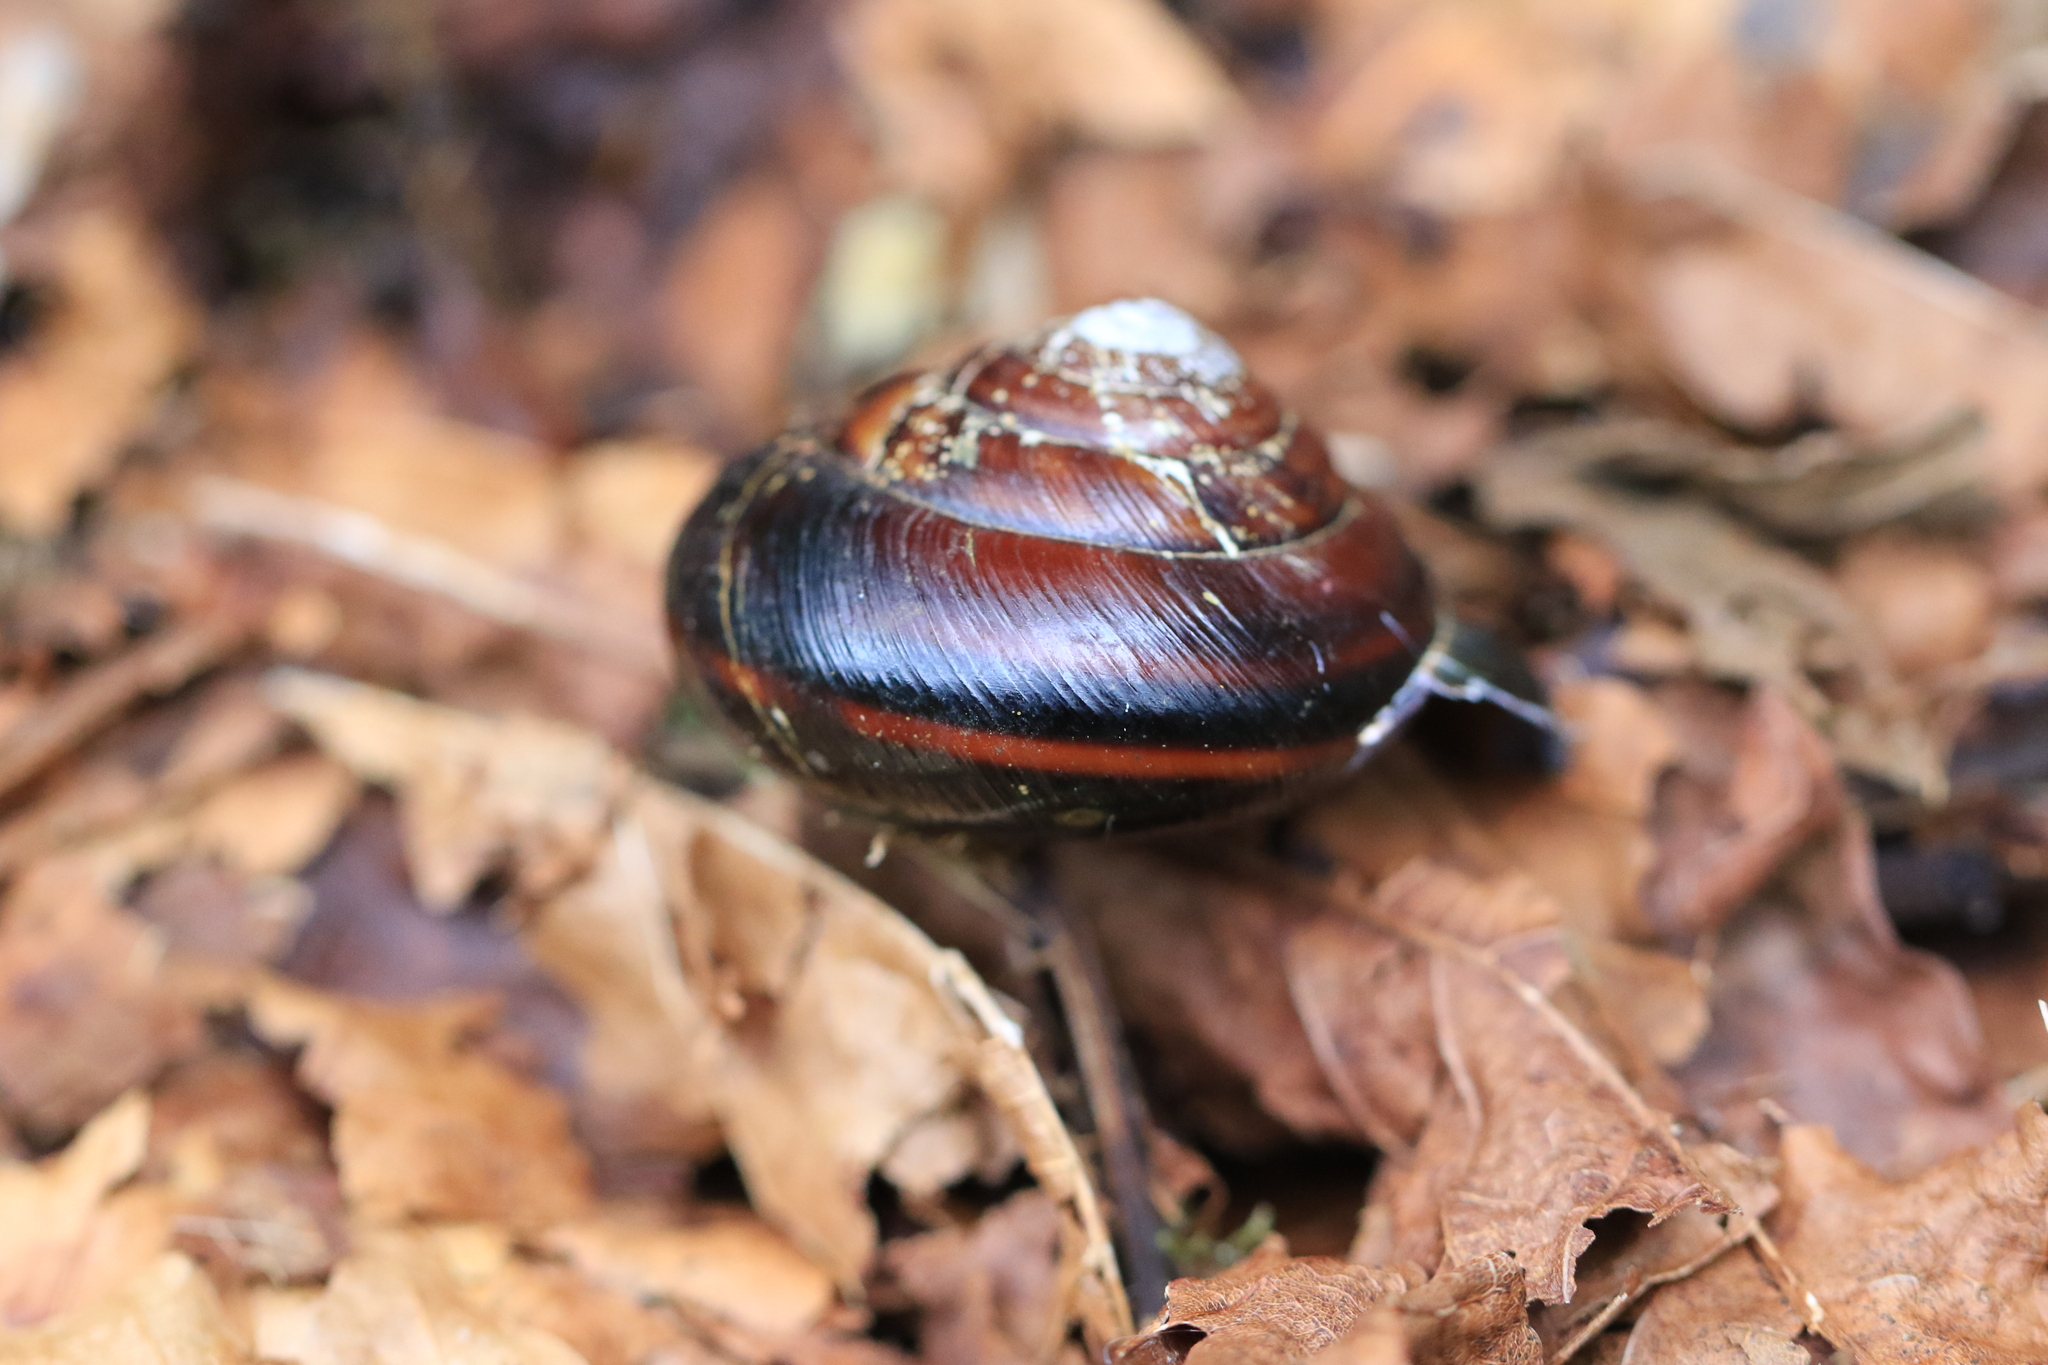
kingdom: Animalia
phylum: Mollusca
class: Gastropoda
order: Stylommatophora
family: Xanthonychidae
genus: Monadenia
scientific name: Monadenia fidelis
